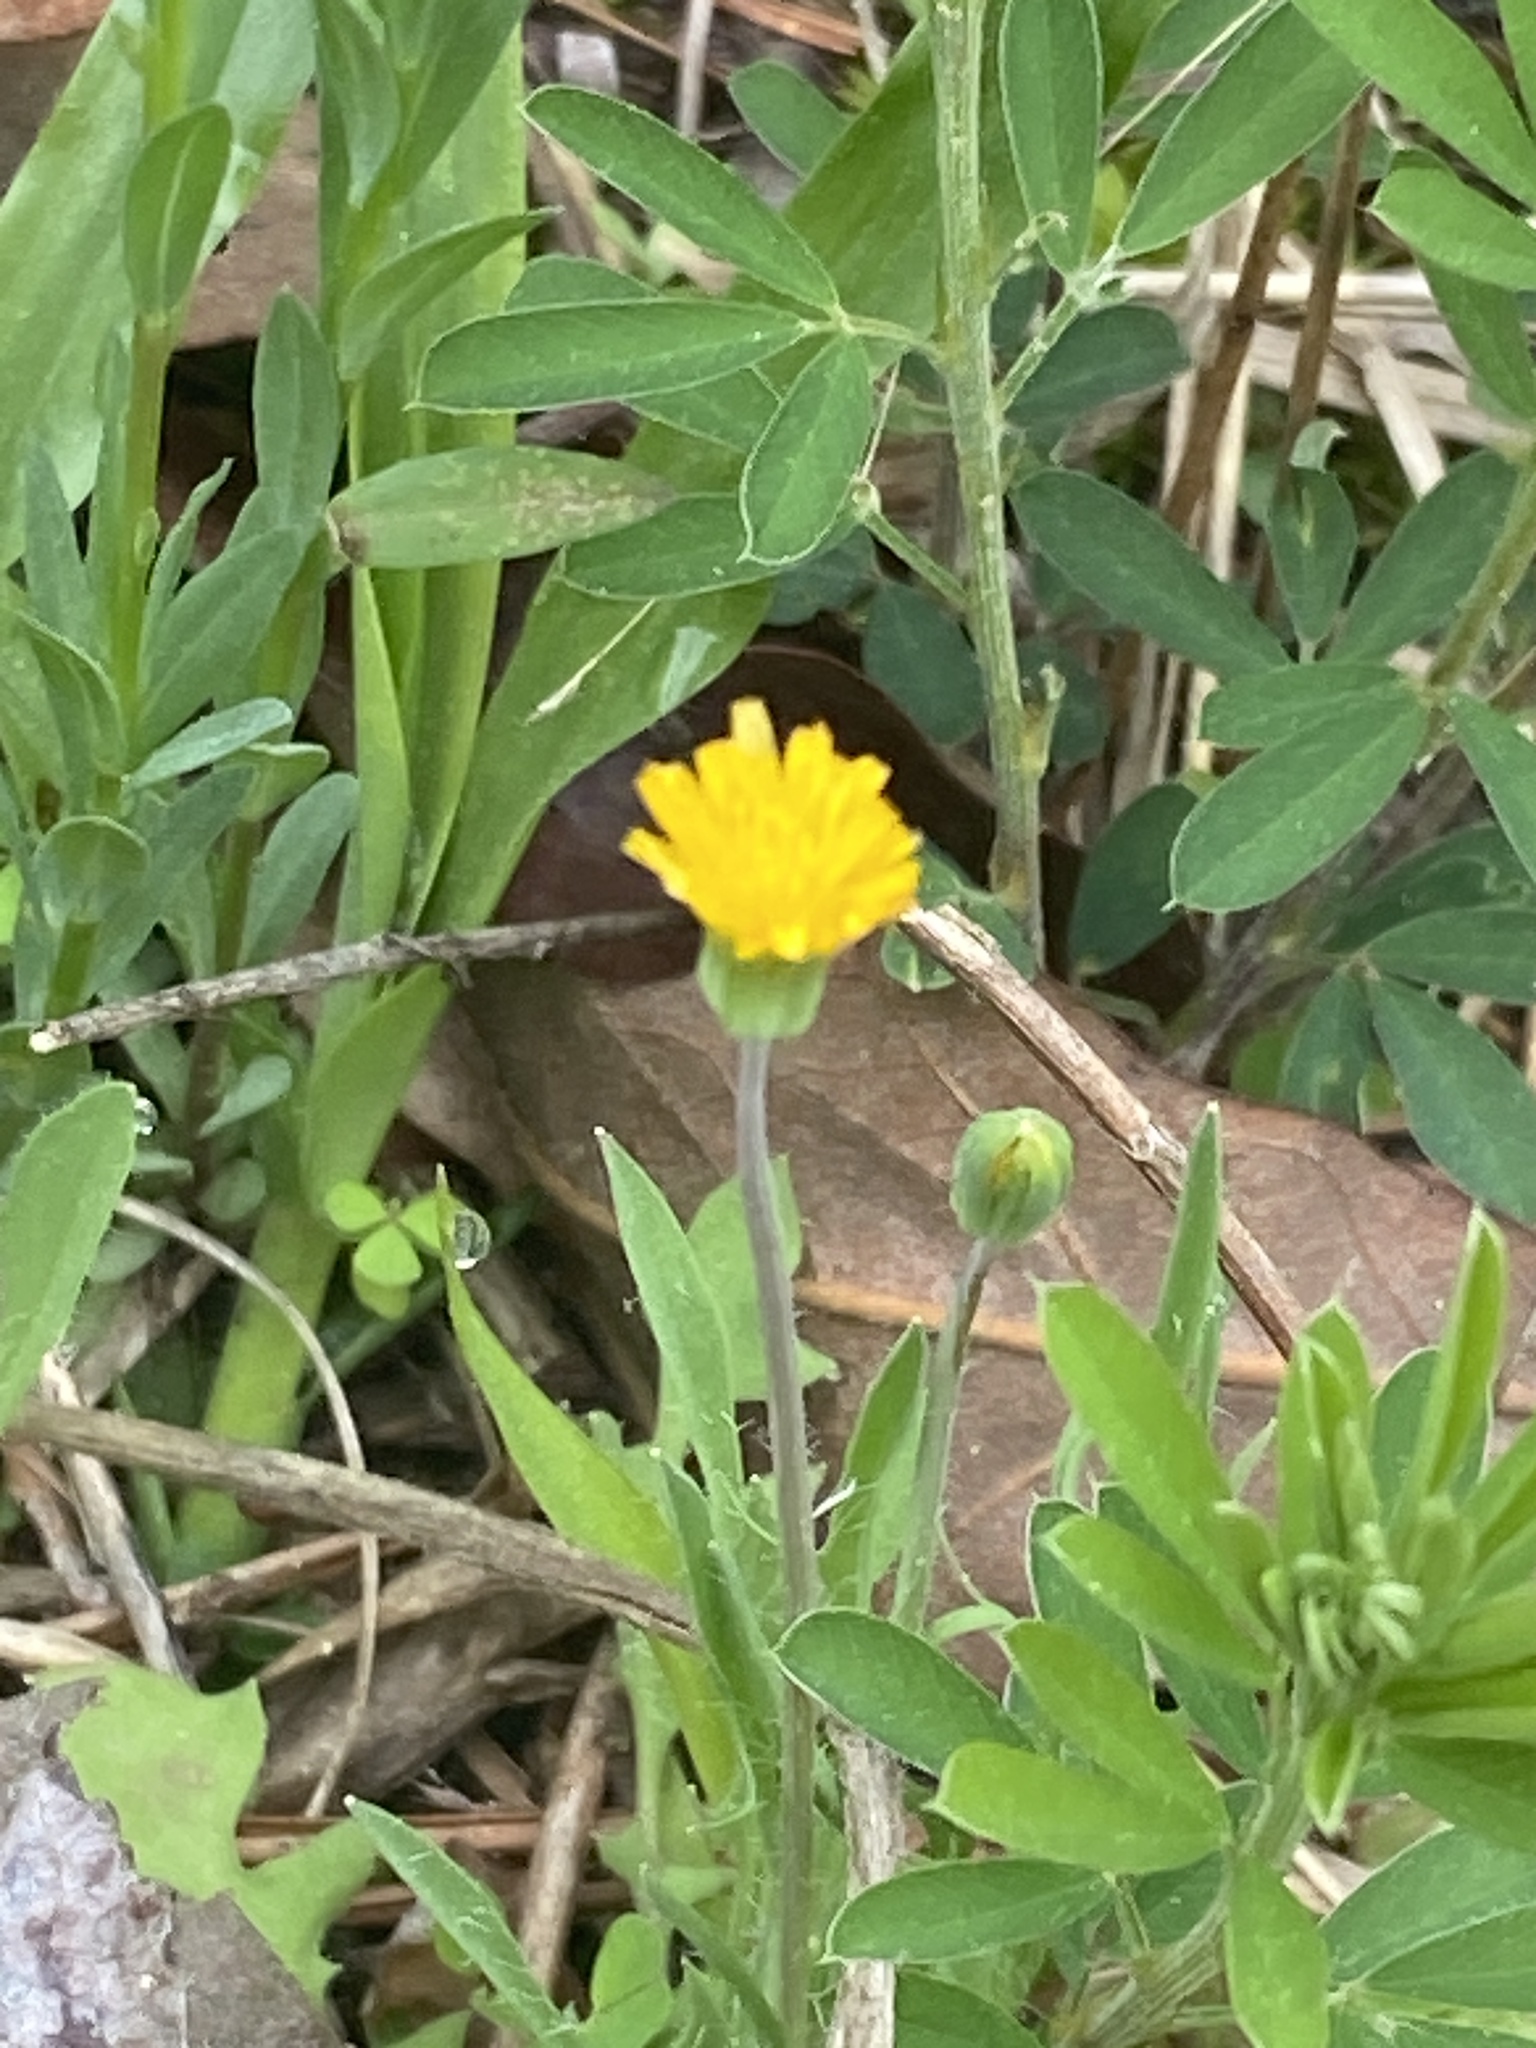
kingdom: Plantae
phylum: Tracheophyta
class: Magnoliopsida
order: Asterales
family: Asteraceae
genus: Krigia
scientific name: Krigia virginica
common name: Virginia dwarf-dandelion
